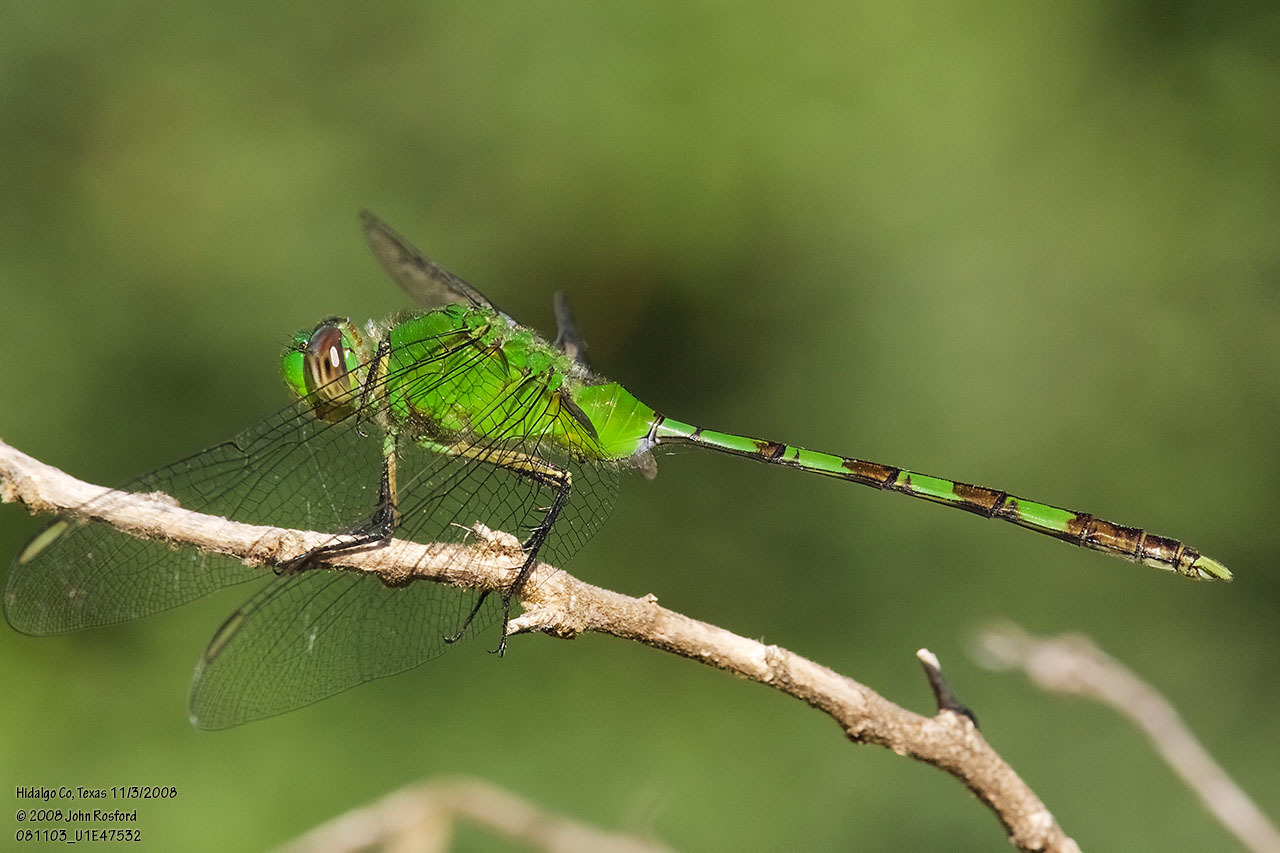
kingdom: Animalia
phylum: Arthropoda
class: Insecta
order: Odonata
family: Libellulidae
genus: Erythemis
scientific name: Erythemis vesiculosa
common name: Great pondhawk
